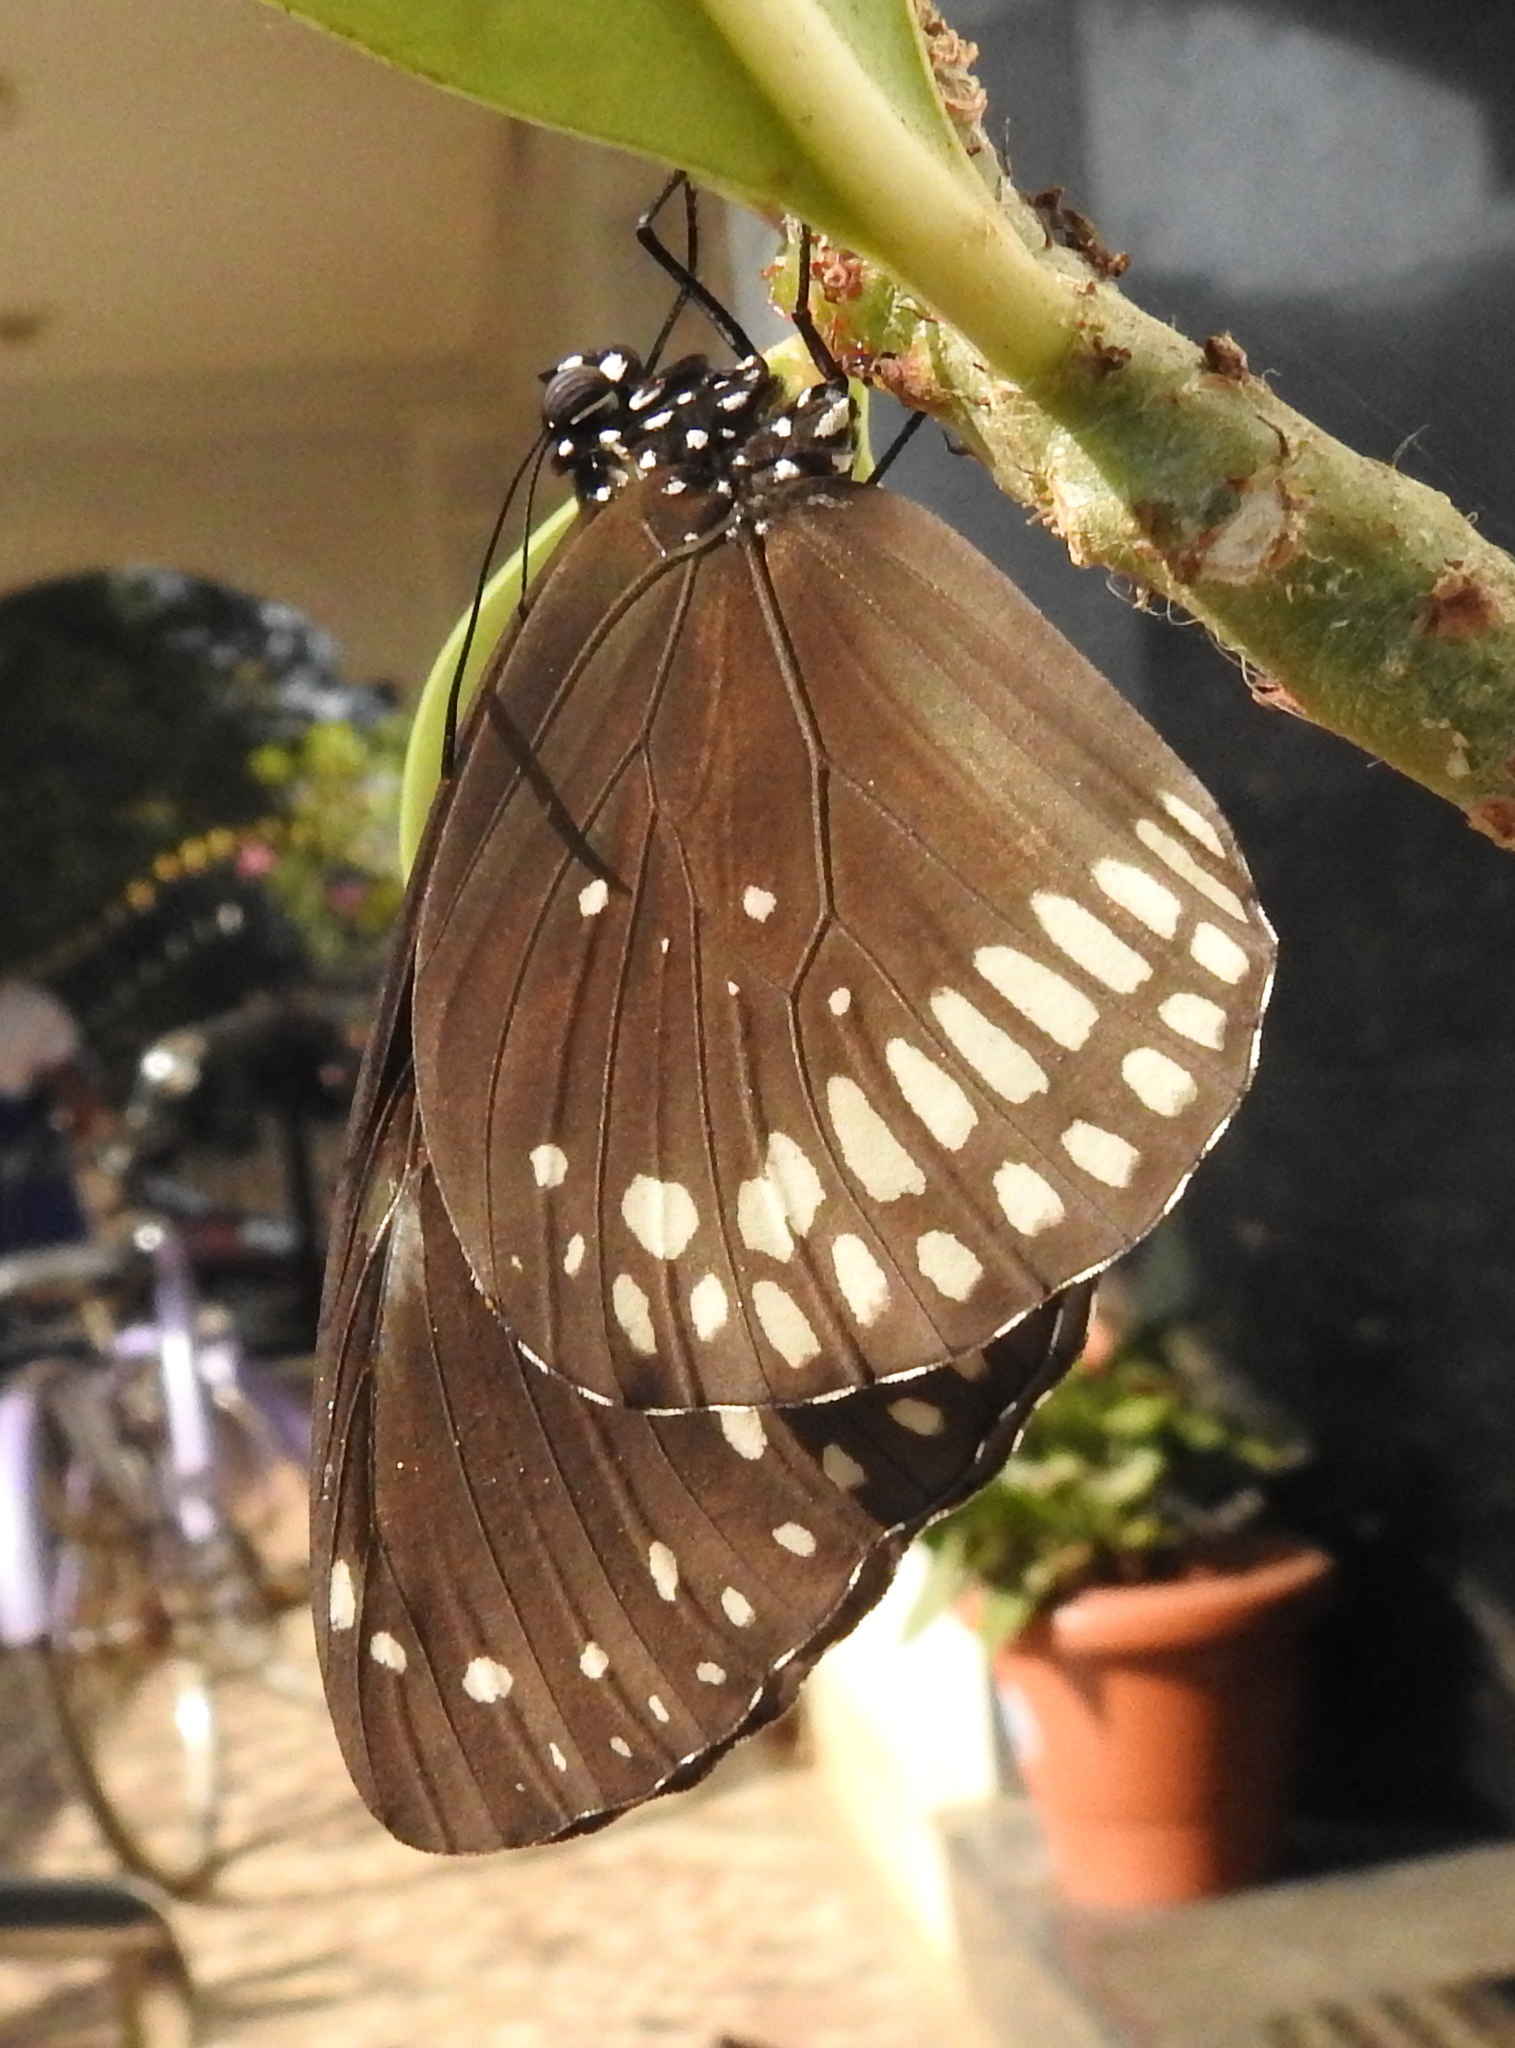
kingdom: Animalia
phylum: Arthropoda
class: Insecta
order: Lepidoptera
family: Nymphalidae
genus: Euploea
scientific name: Euploea core
